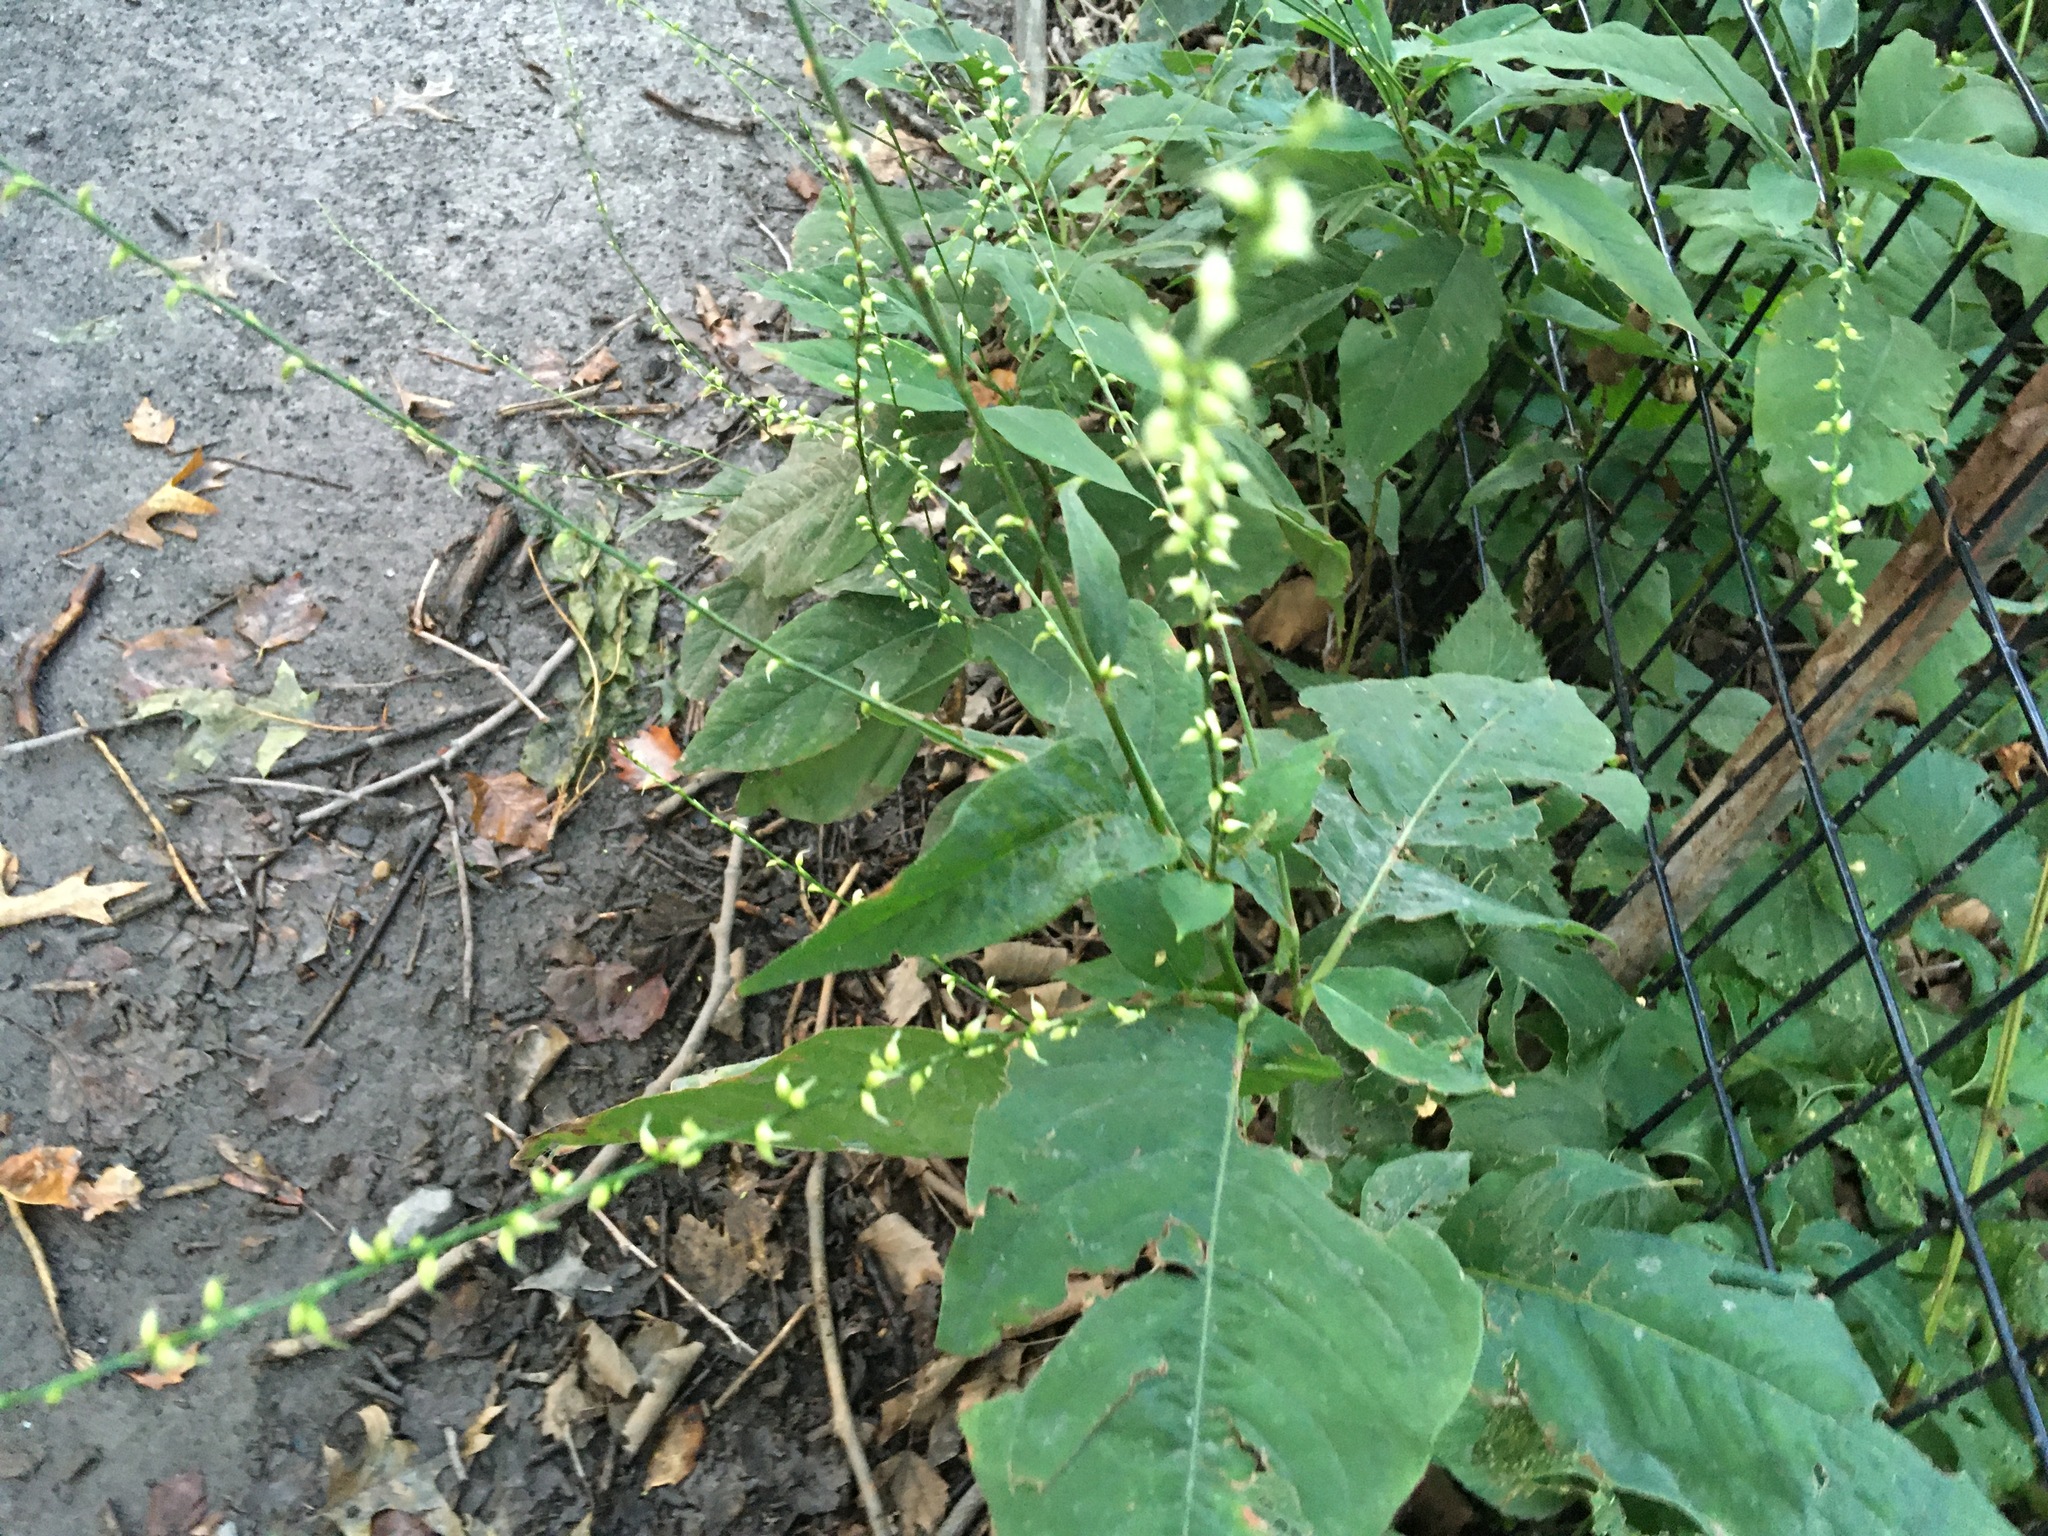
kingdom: Plantae
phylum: Tracheophyta
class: Magnoliopsida
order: Caryophyllales
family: Polygonaceae
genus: Persicaria
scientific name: Persicaria virginiana
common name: Jumpseed
